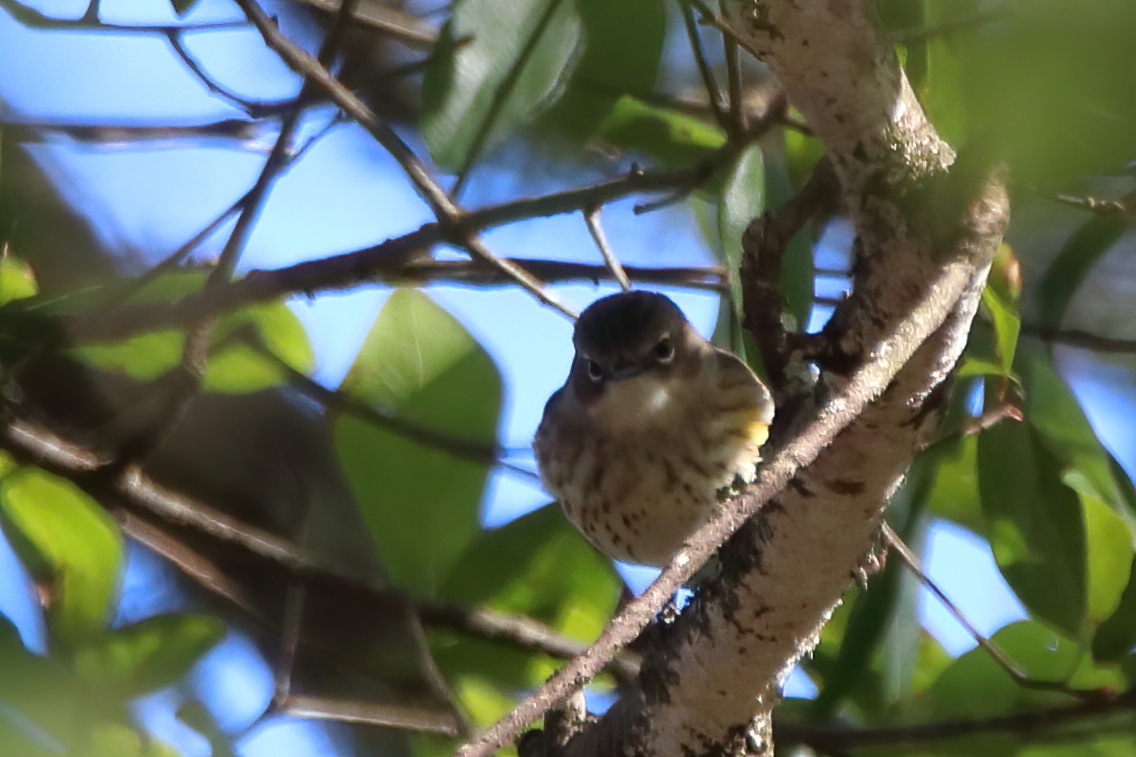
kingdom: Animalia
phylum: Chordata
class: Aves
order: Passeriformes
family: Parulidae
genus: Setophaga
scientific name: Setophaga coronata
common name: Myrtle warbler
